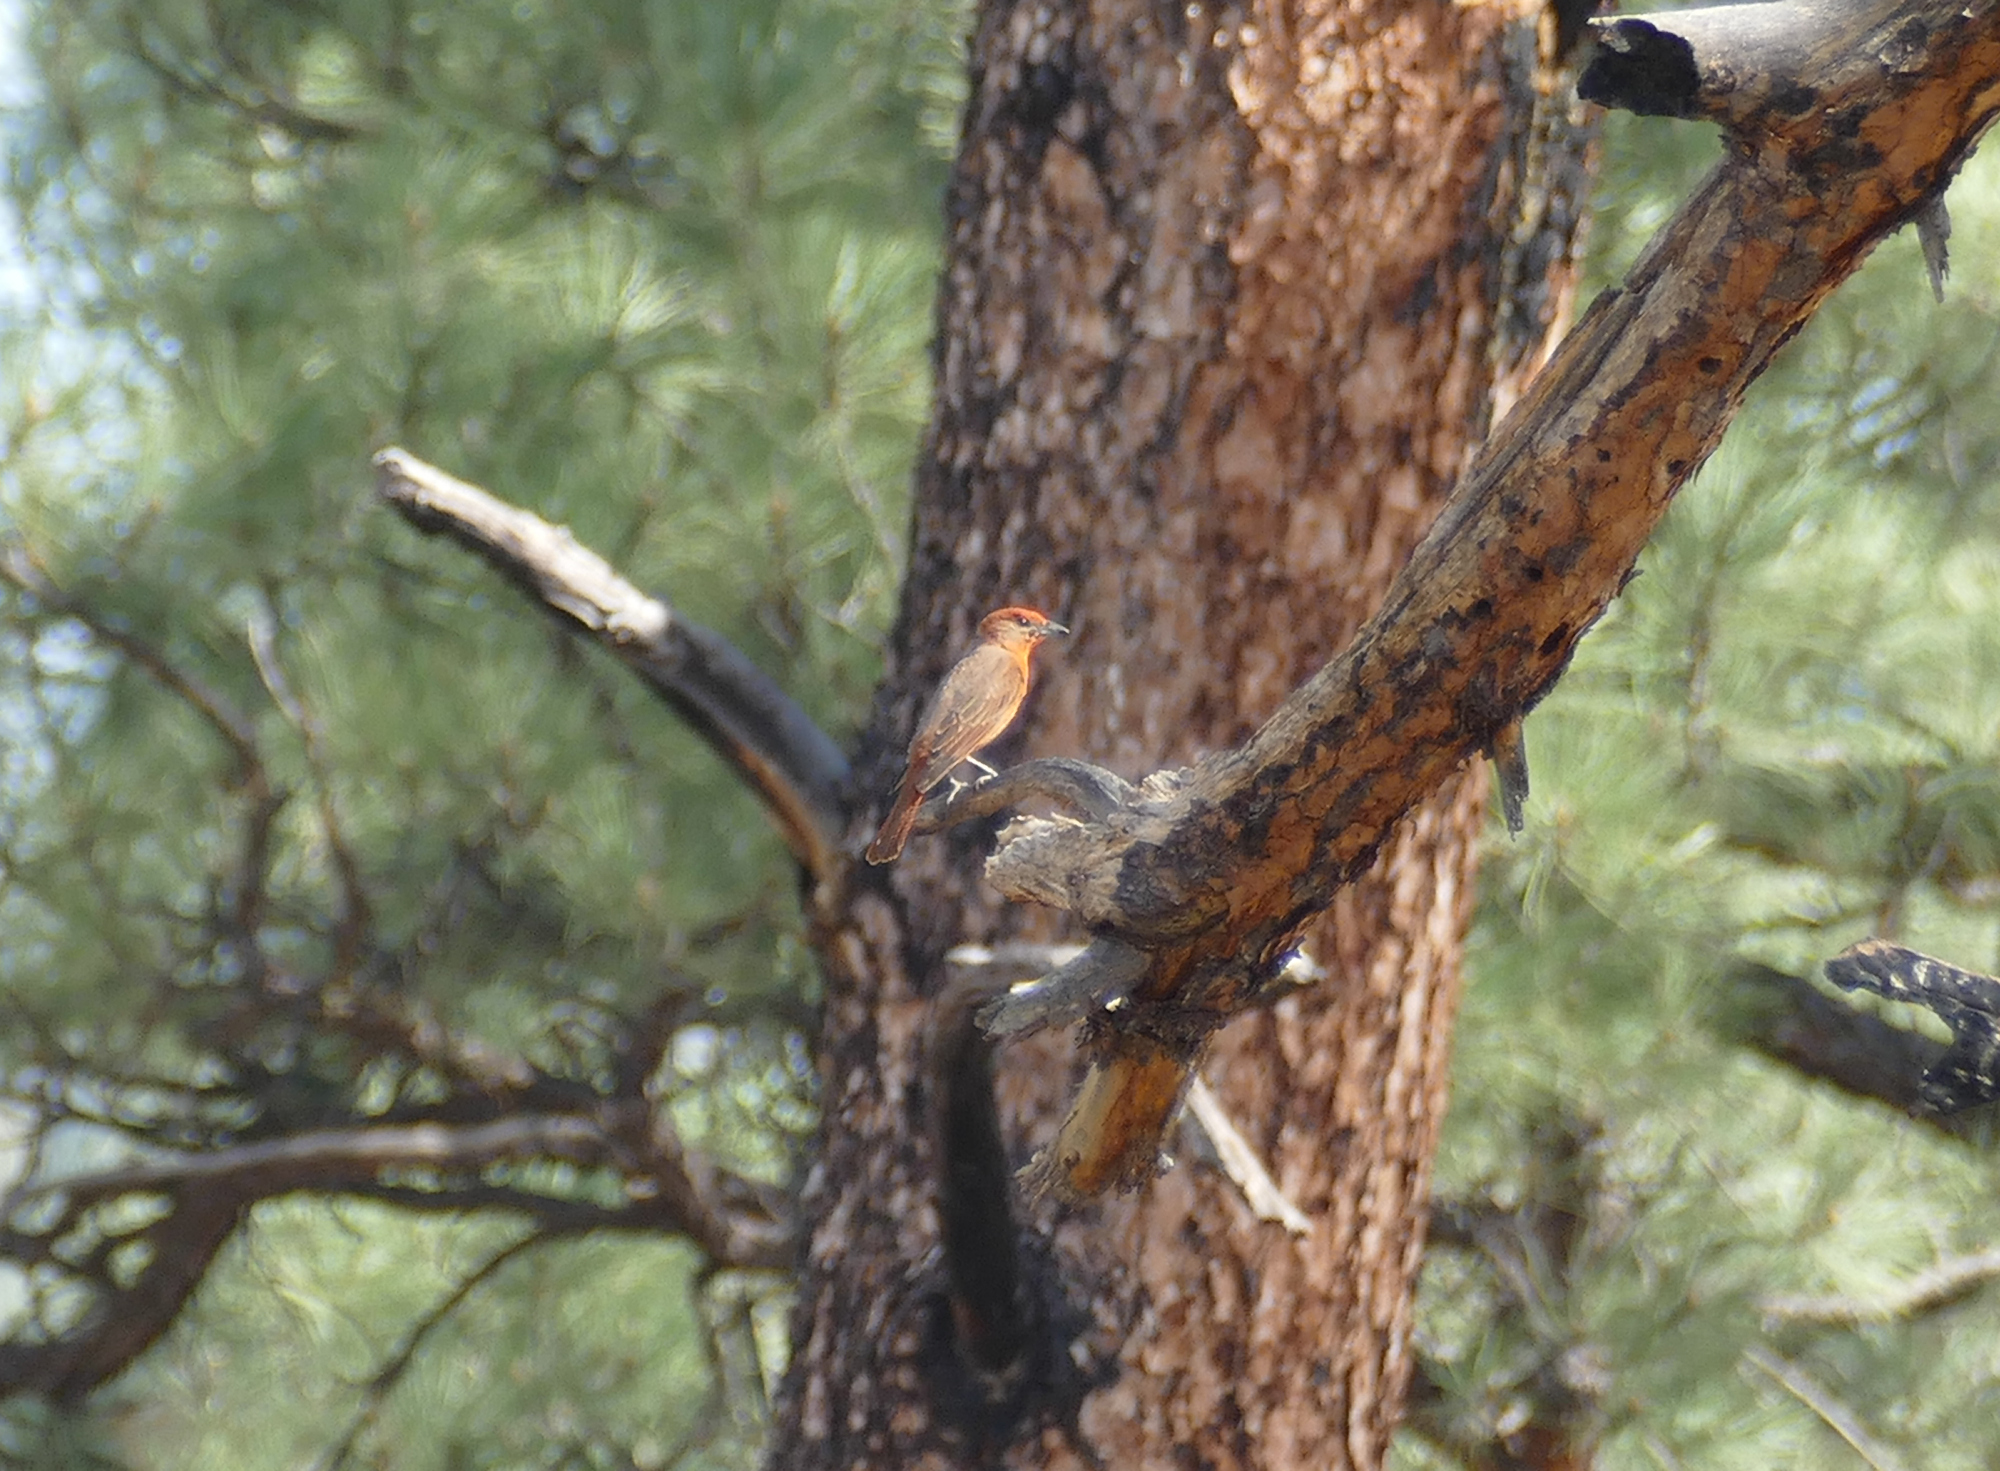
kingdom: Animalia
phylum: Chordata
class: Aves
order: Passeriformes
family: Cardinalidae
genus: Piranga
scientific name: Piranga flava
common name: Red tanager
